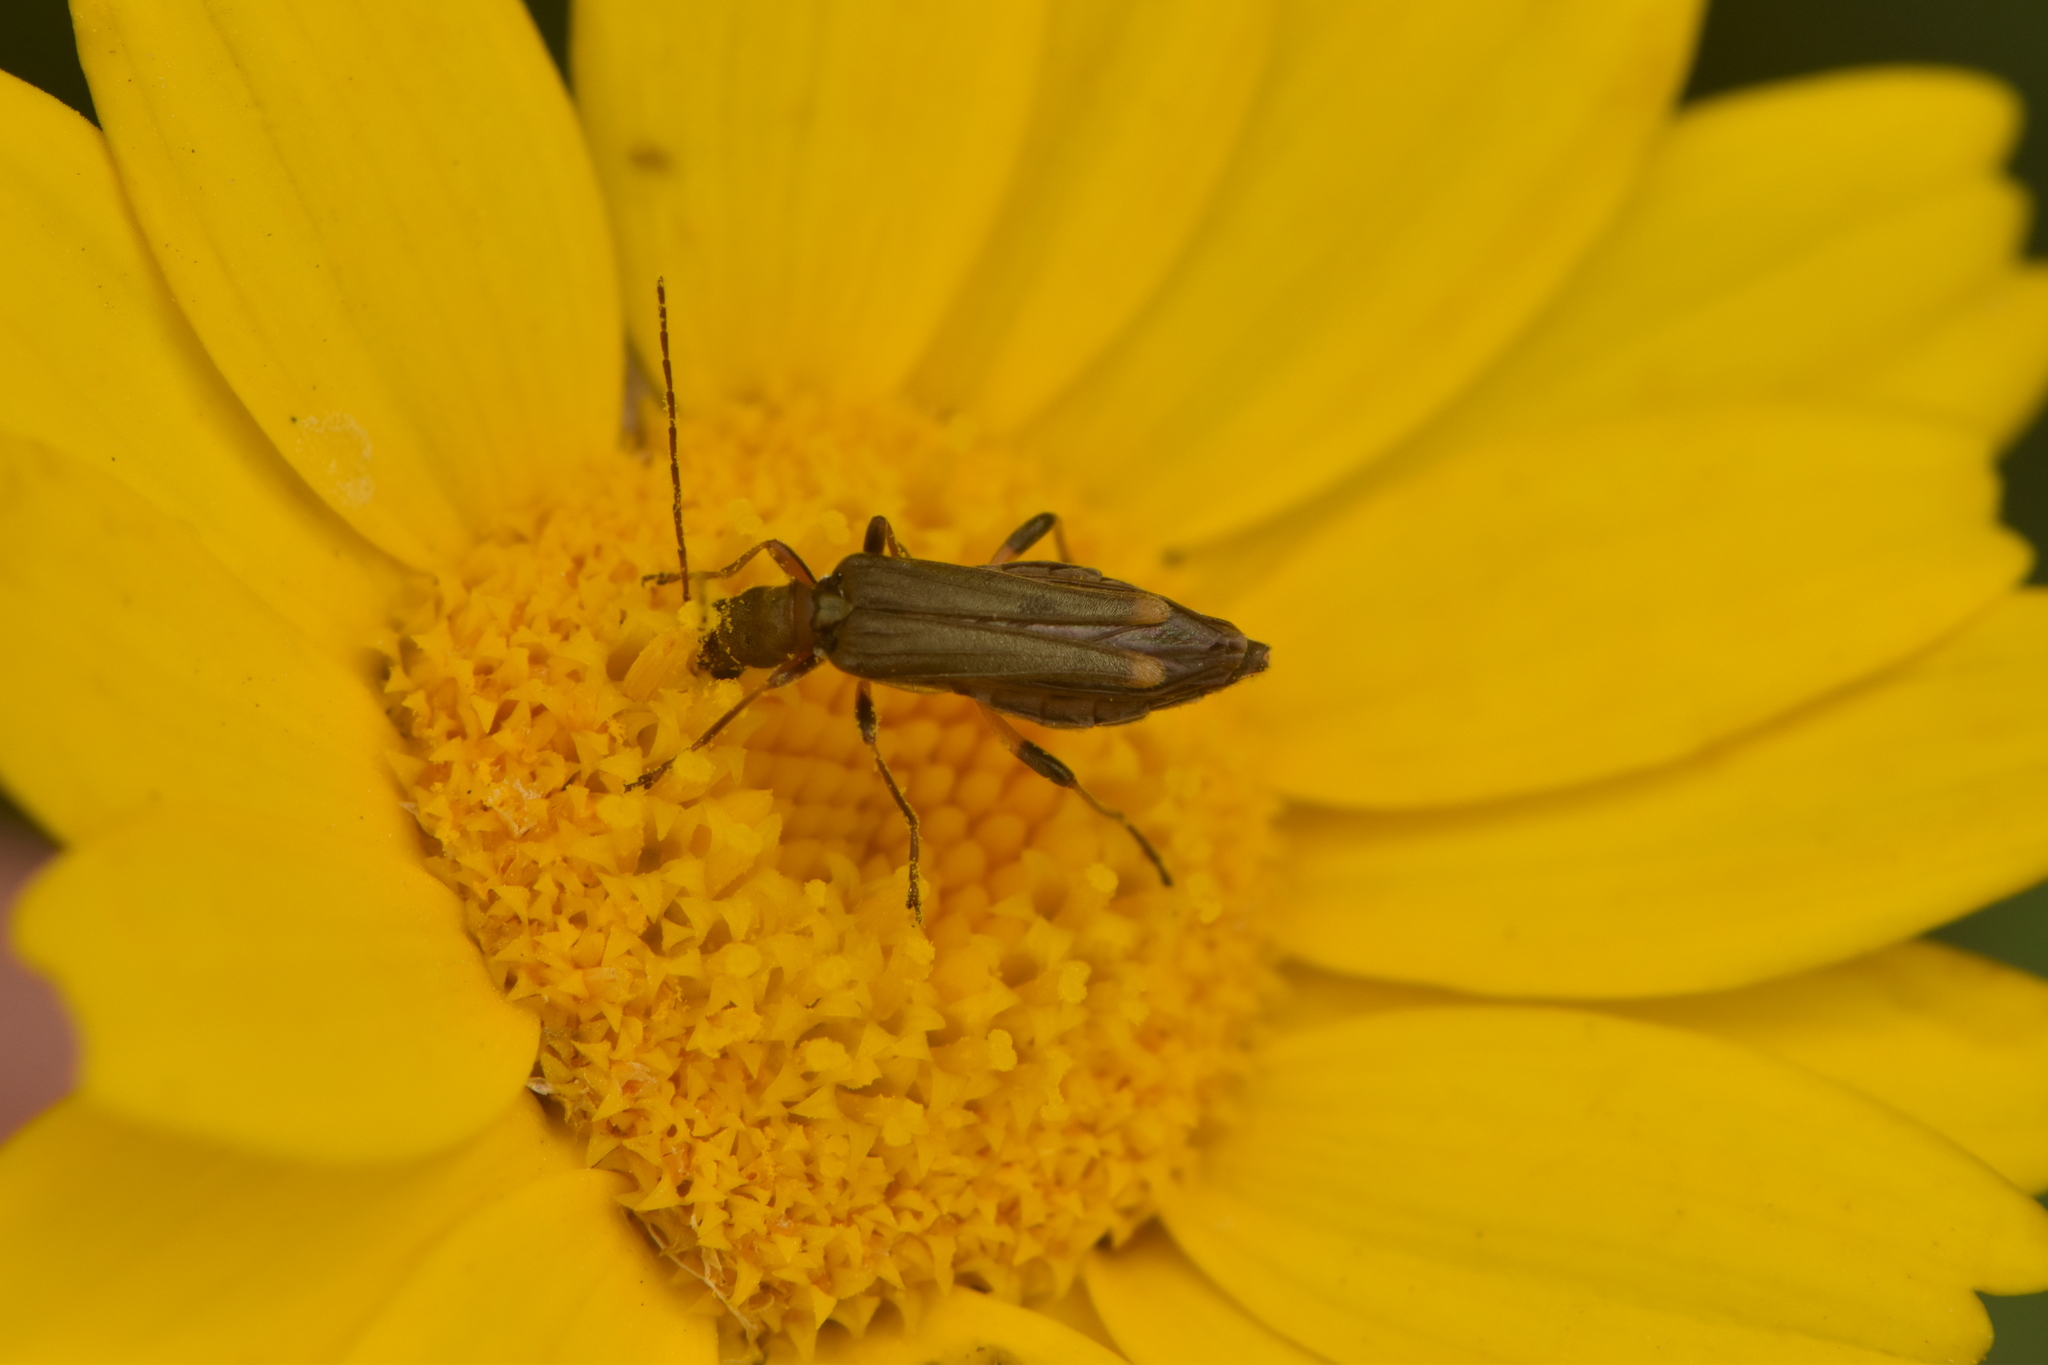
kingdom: Animalia
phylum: Arthropoda
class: Insecta
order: Coleoptera
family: Oedemeridae
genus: Oedemera
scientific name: Oedemera barbara
